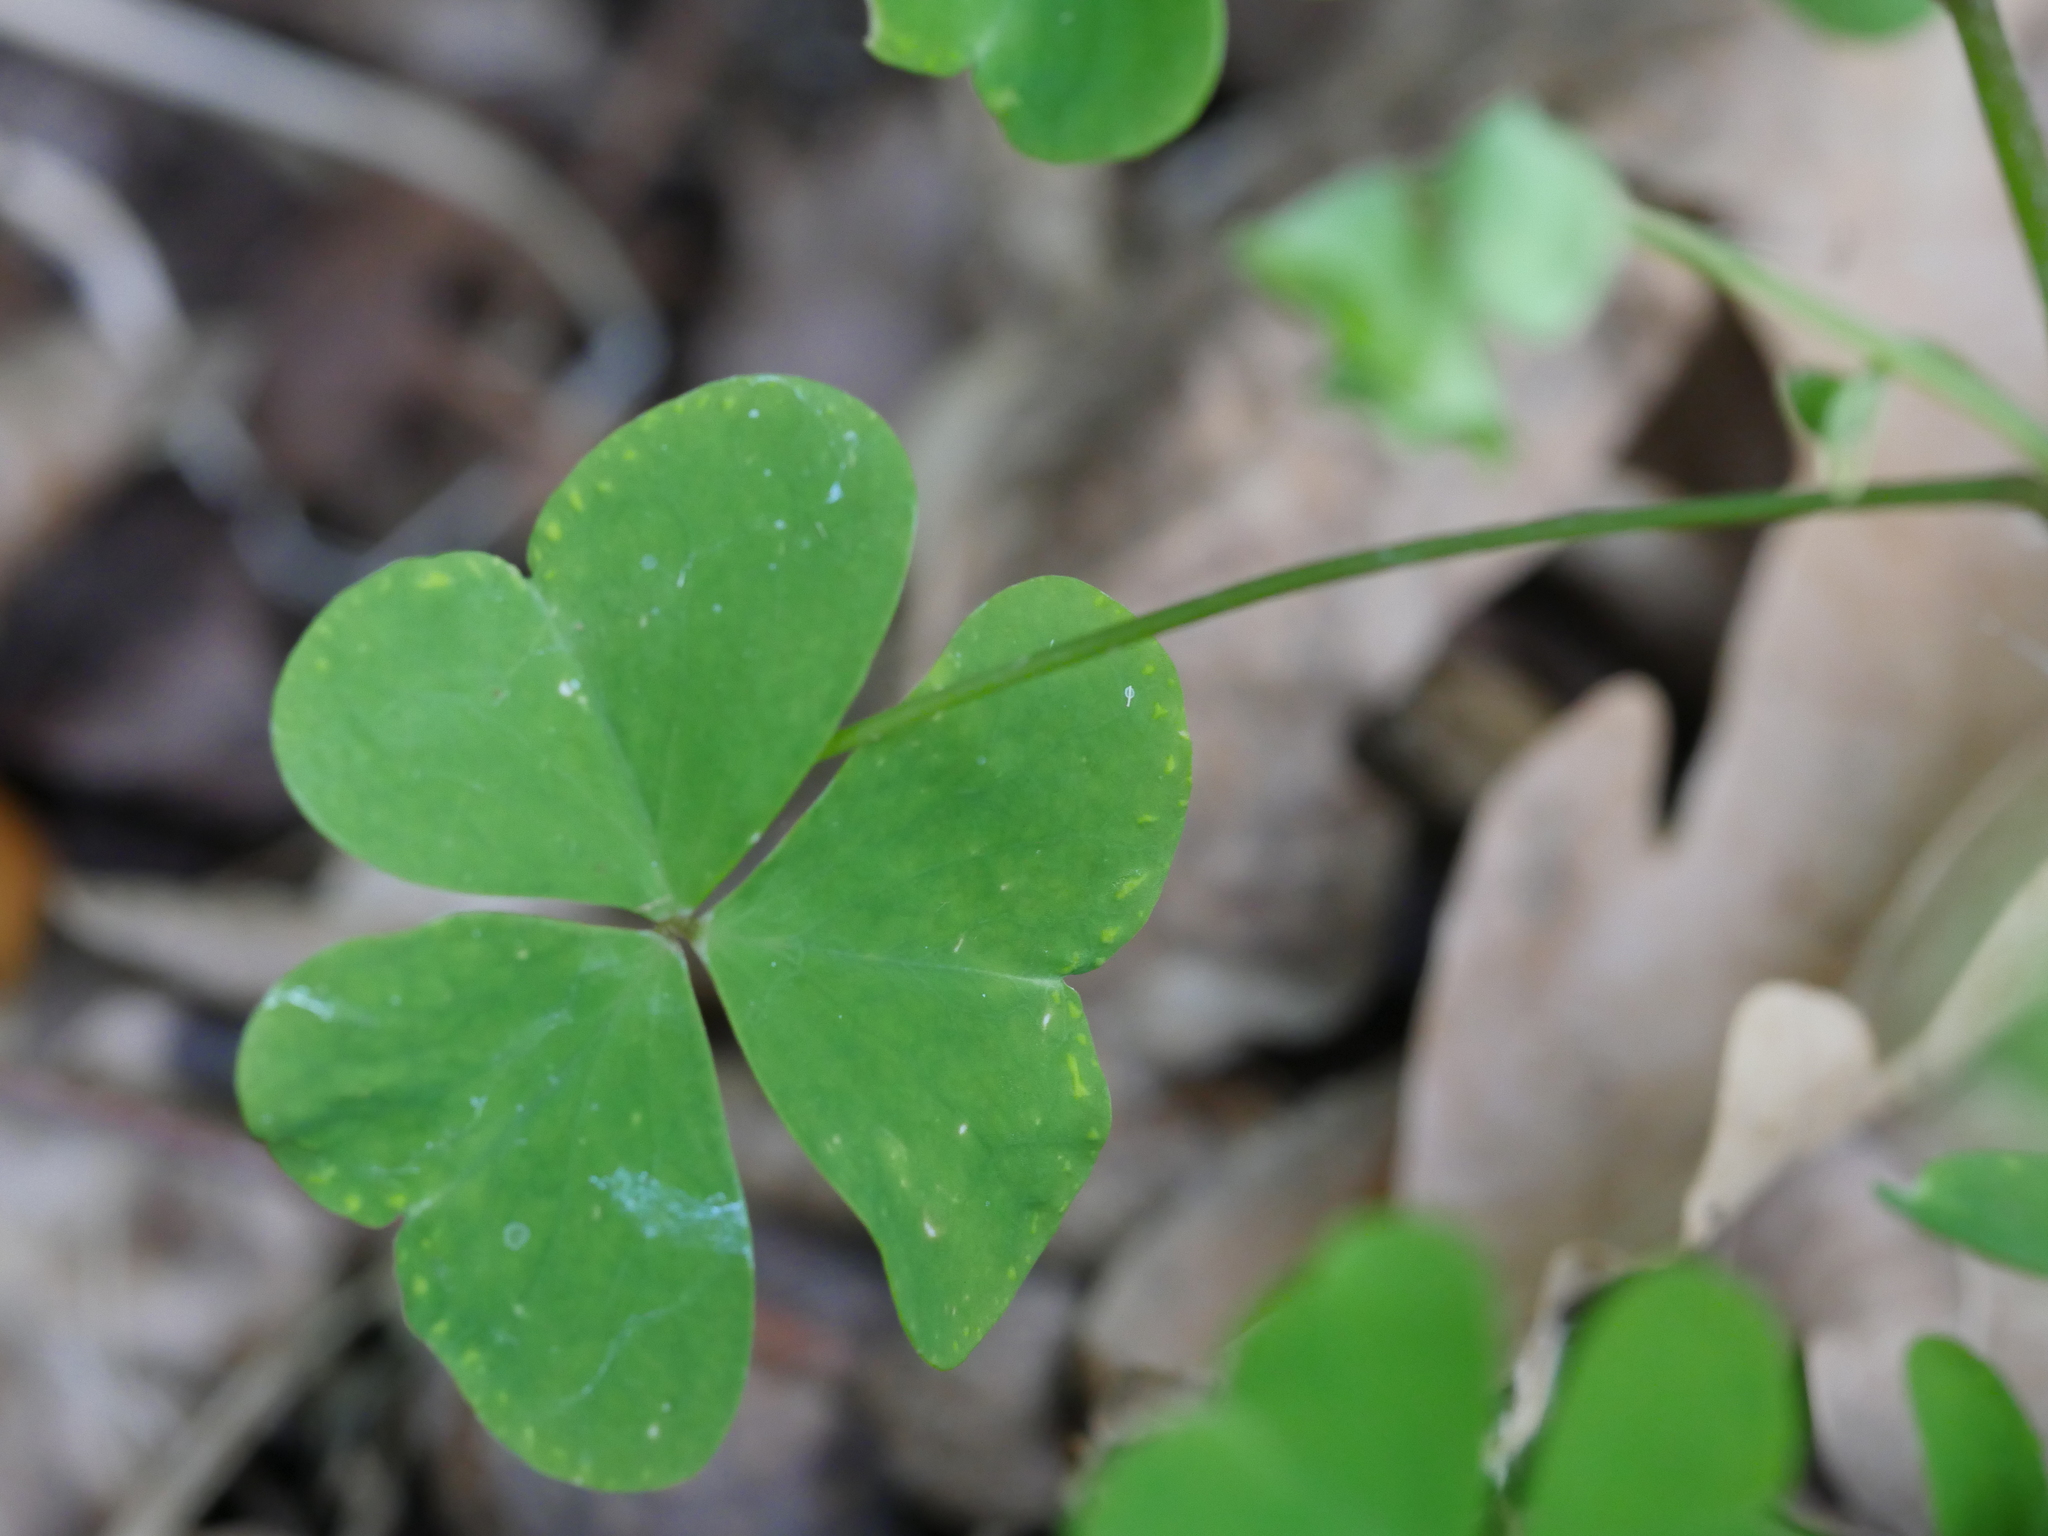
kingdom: Plantae
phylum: Tracheophyta
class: Magnoliopsida
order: Oxalidales
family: Oxalidaceae
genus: Oxalis
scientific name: Oxalis incarnata
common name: Pale pink-sorrel
